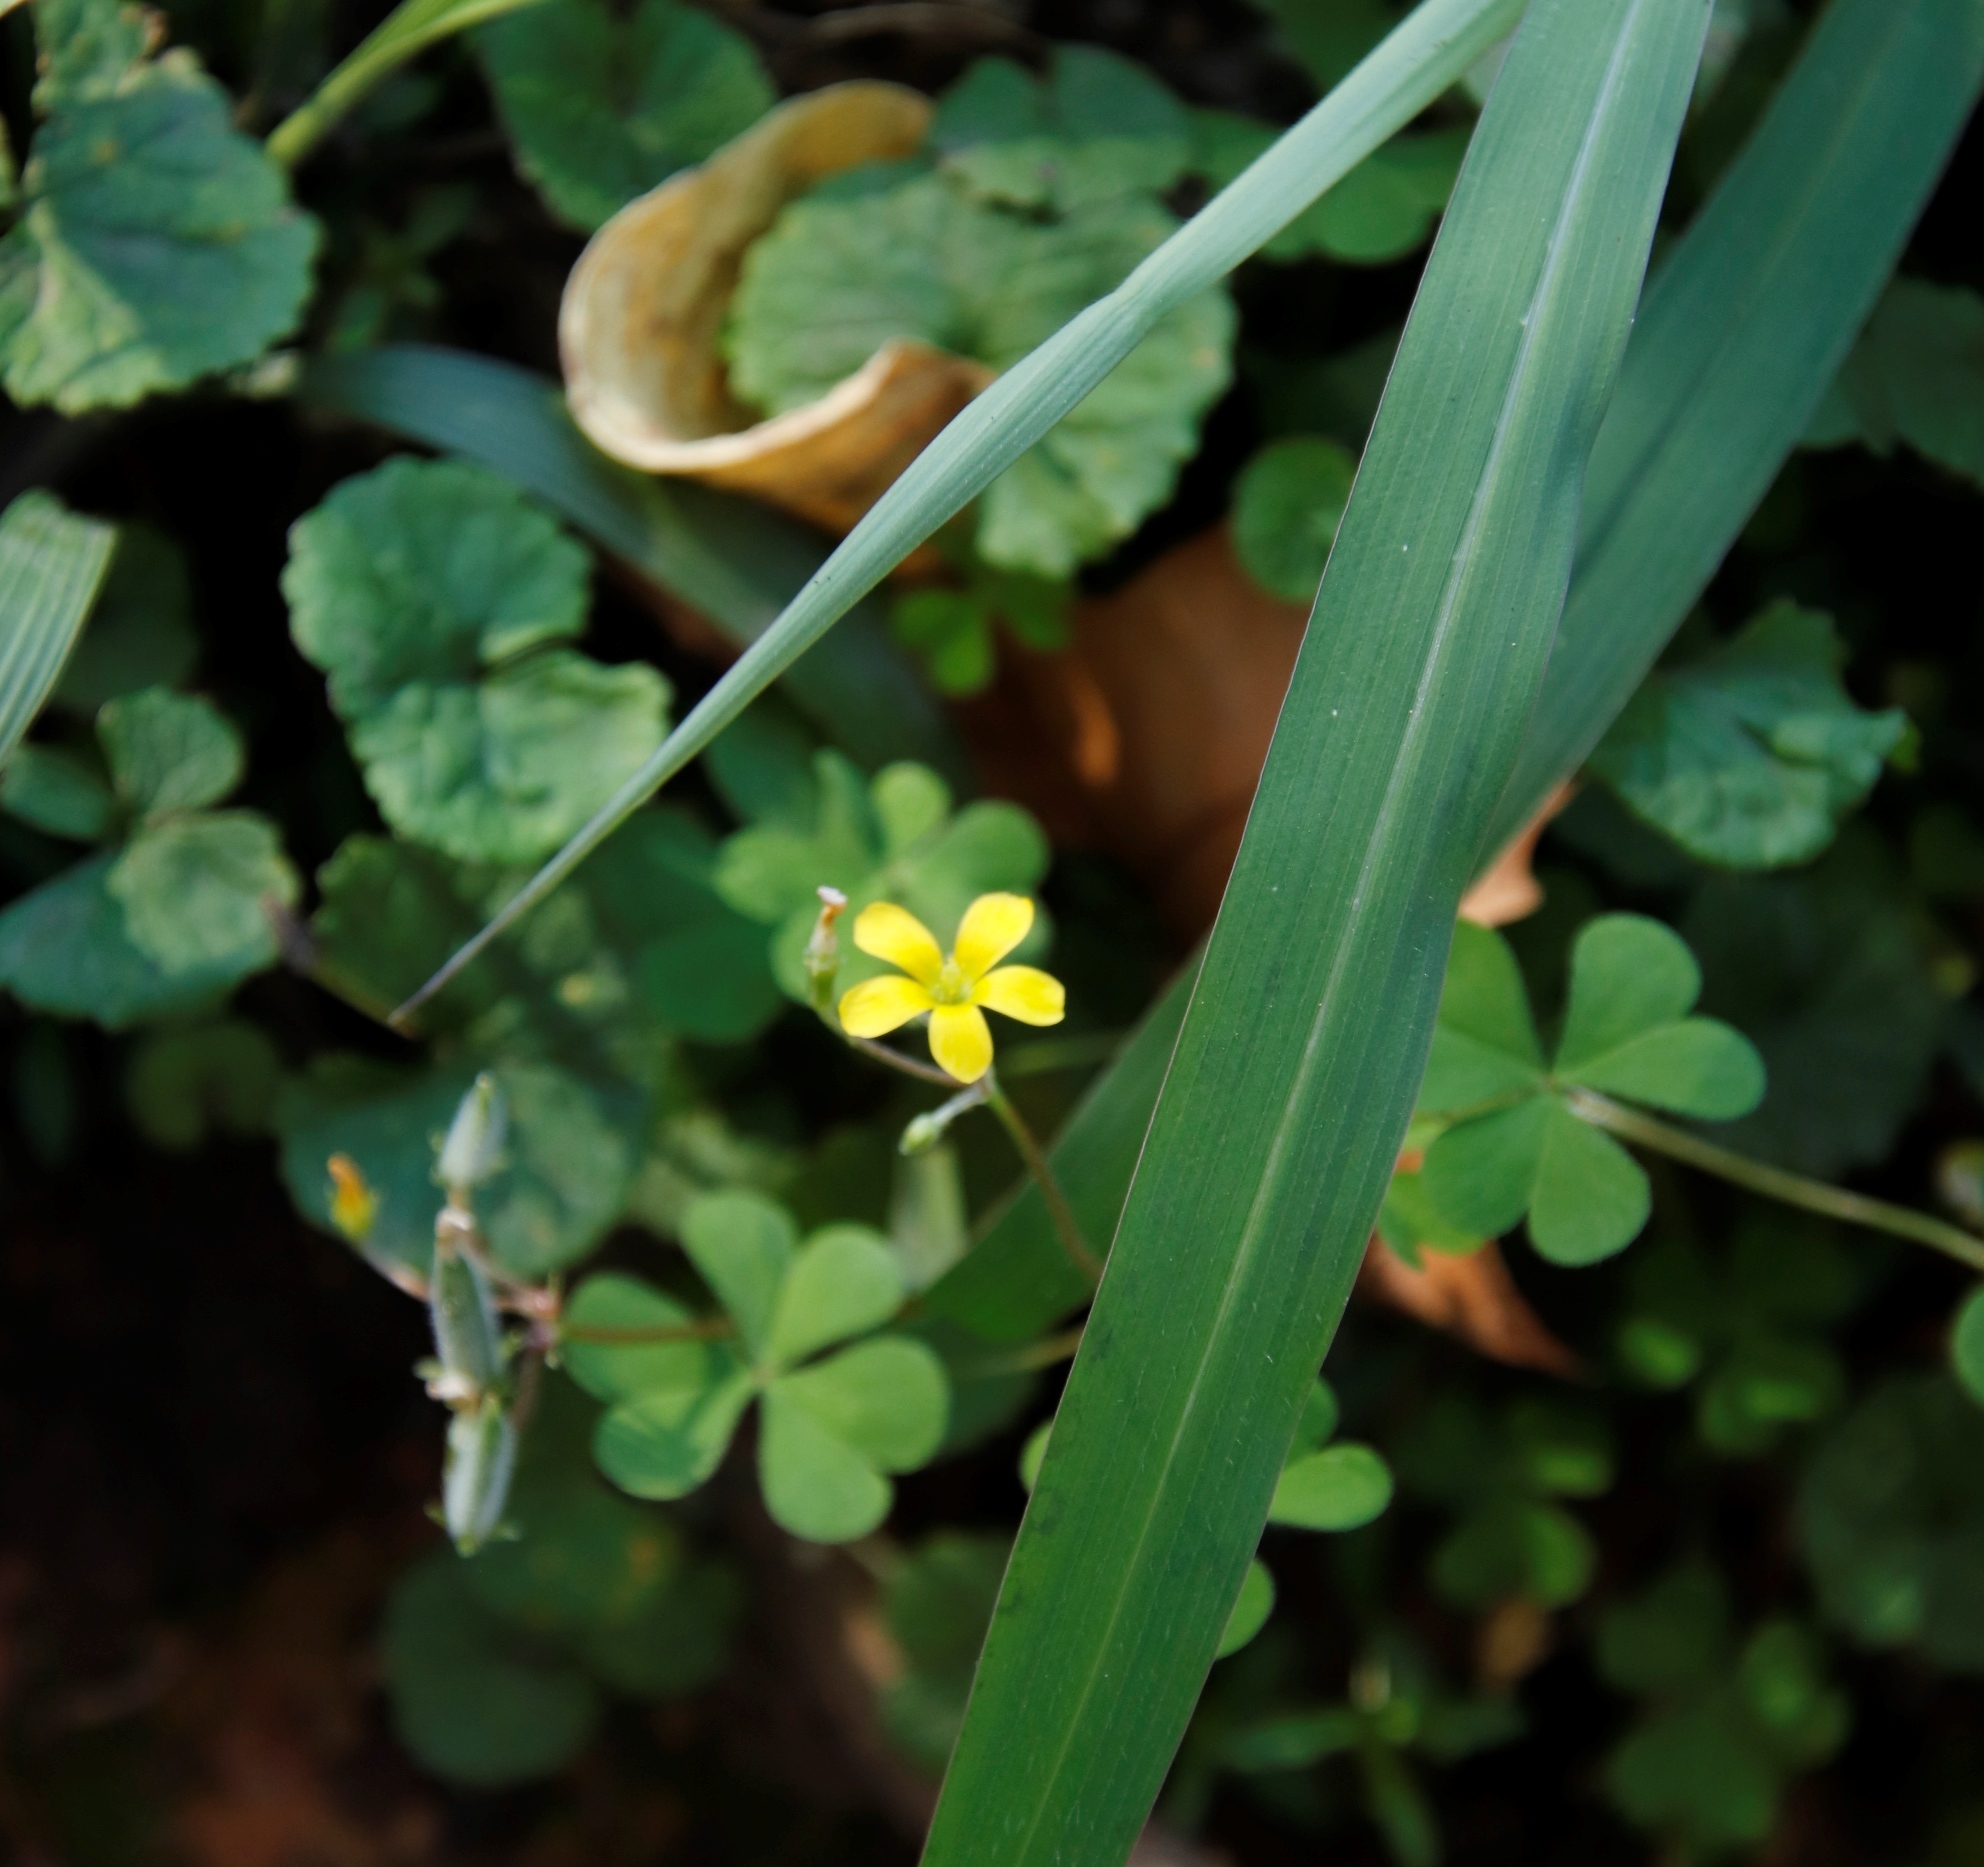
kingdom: Plantae
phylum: Tracheophyta
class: Magnoliopsida
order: Oxalidales
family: Oxalidaceae
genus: Oxalis
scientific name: Oxalis corniculata
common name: Procumbent yellow-sorrel
